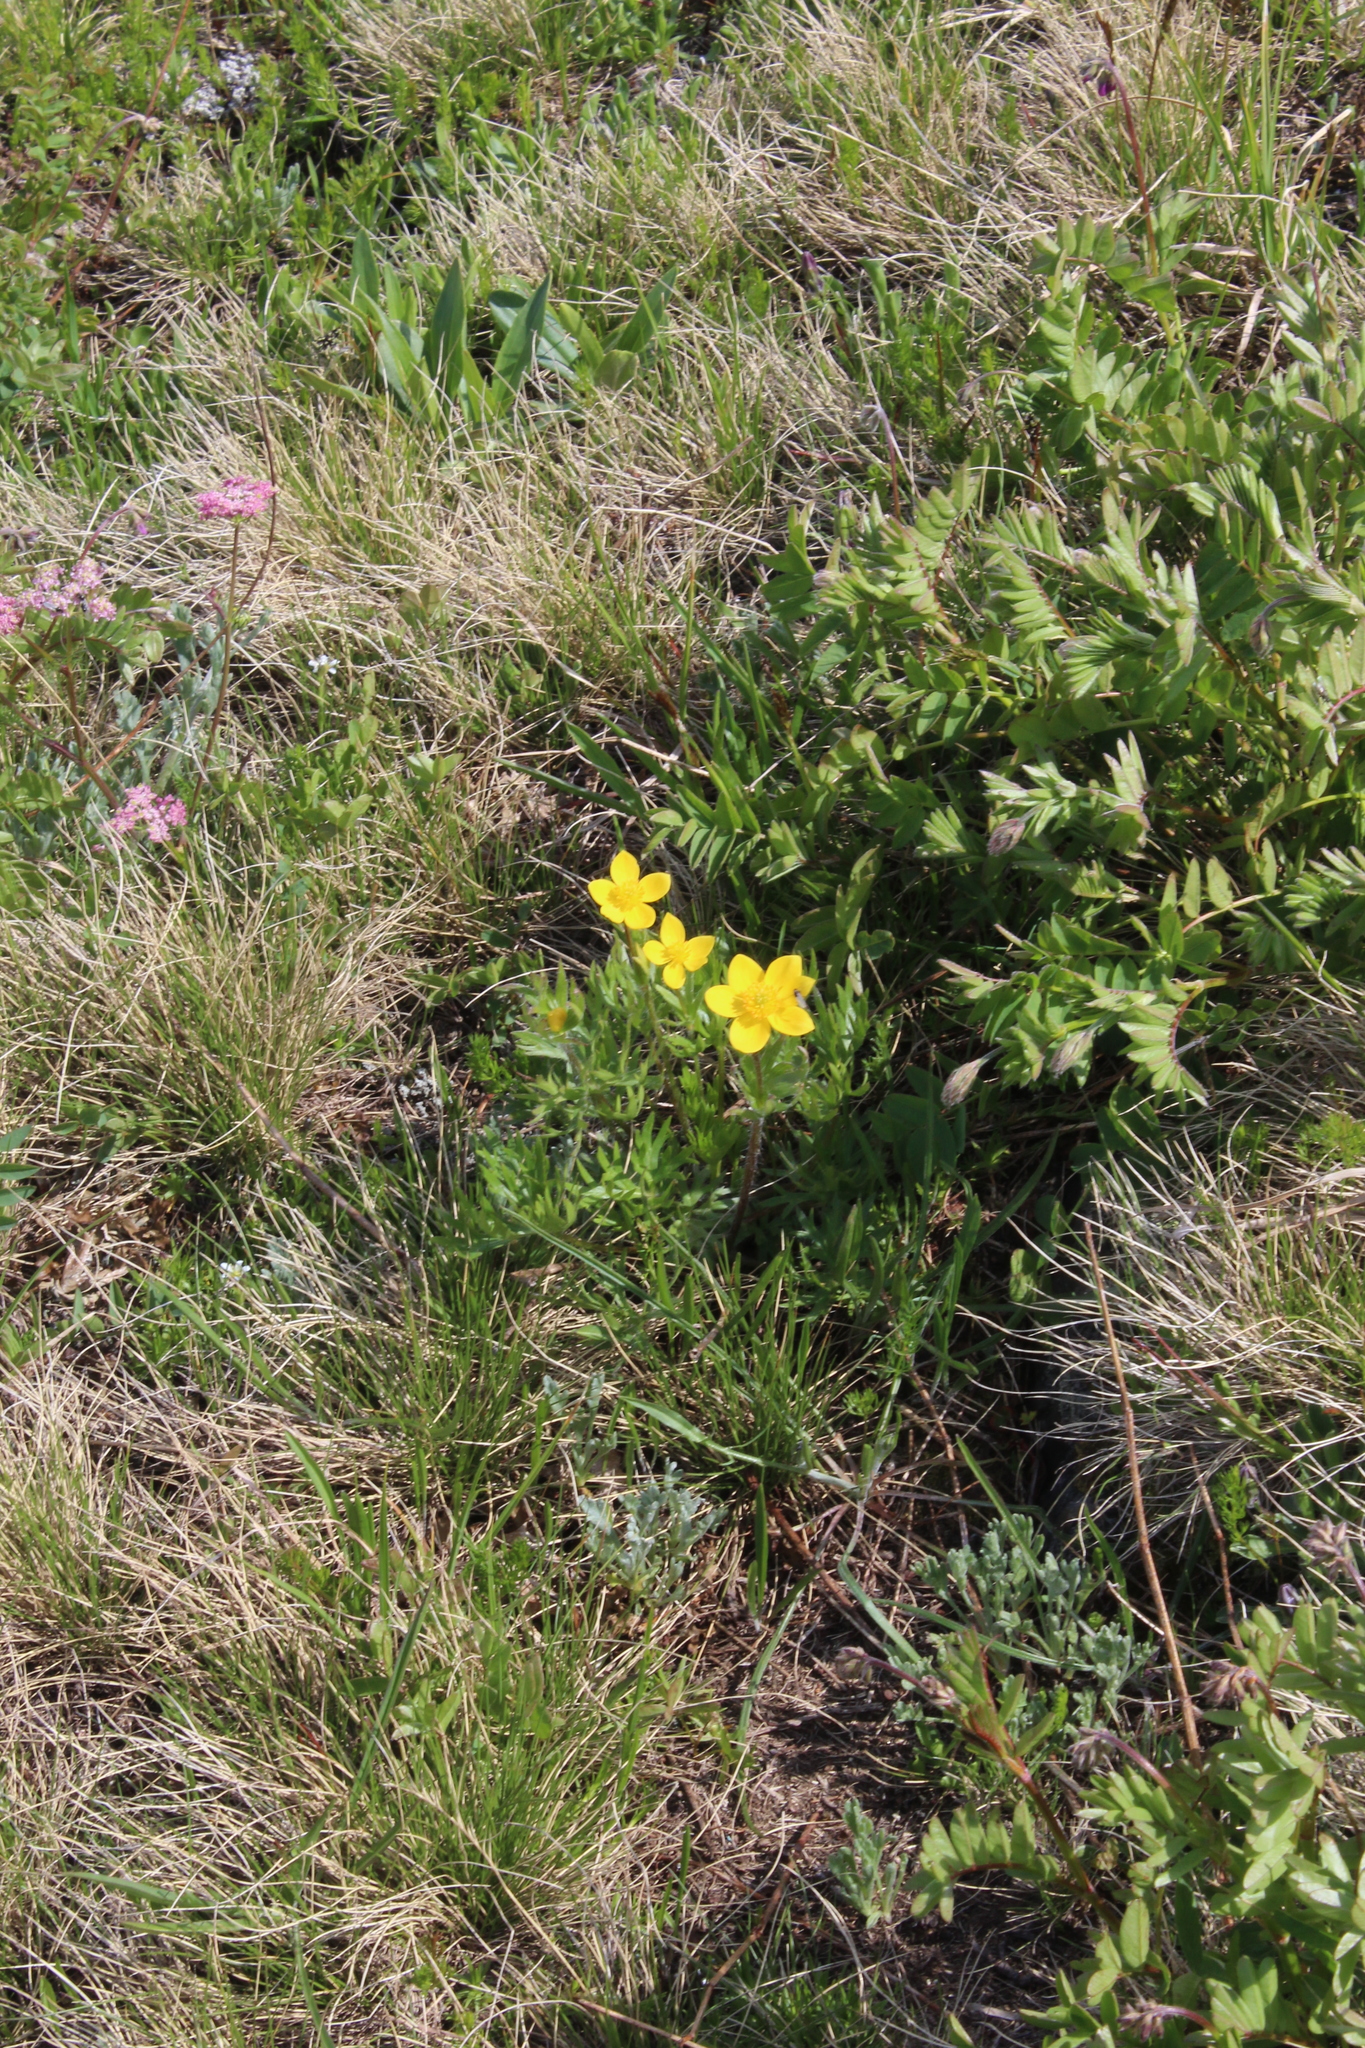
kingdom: Plantae
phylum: Tracheophyta
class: Magnoliopsida
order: Ranunculales
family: Ranunculaceae
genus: Anemonastrum
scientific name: Anemonastrum narcissiflorum
